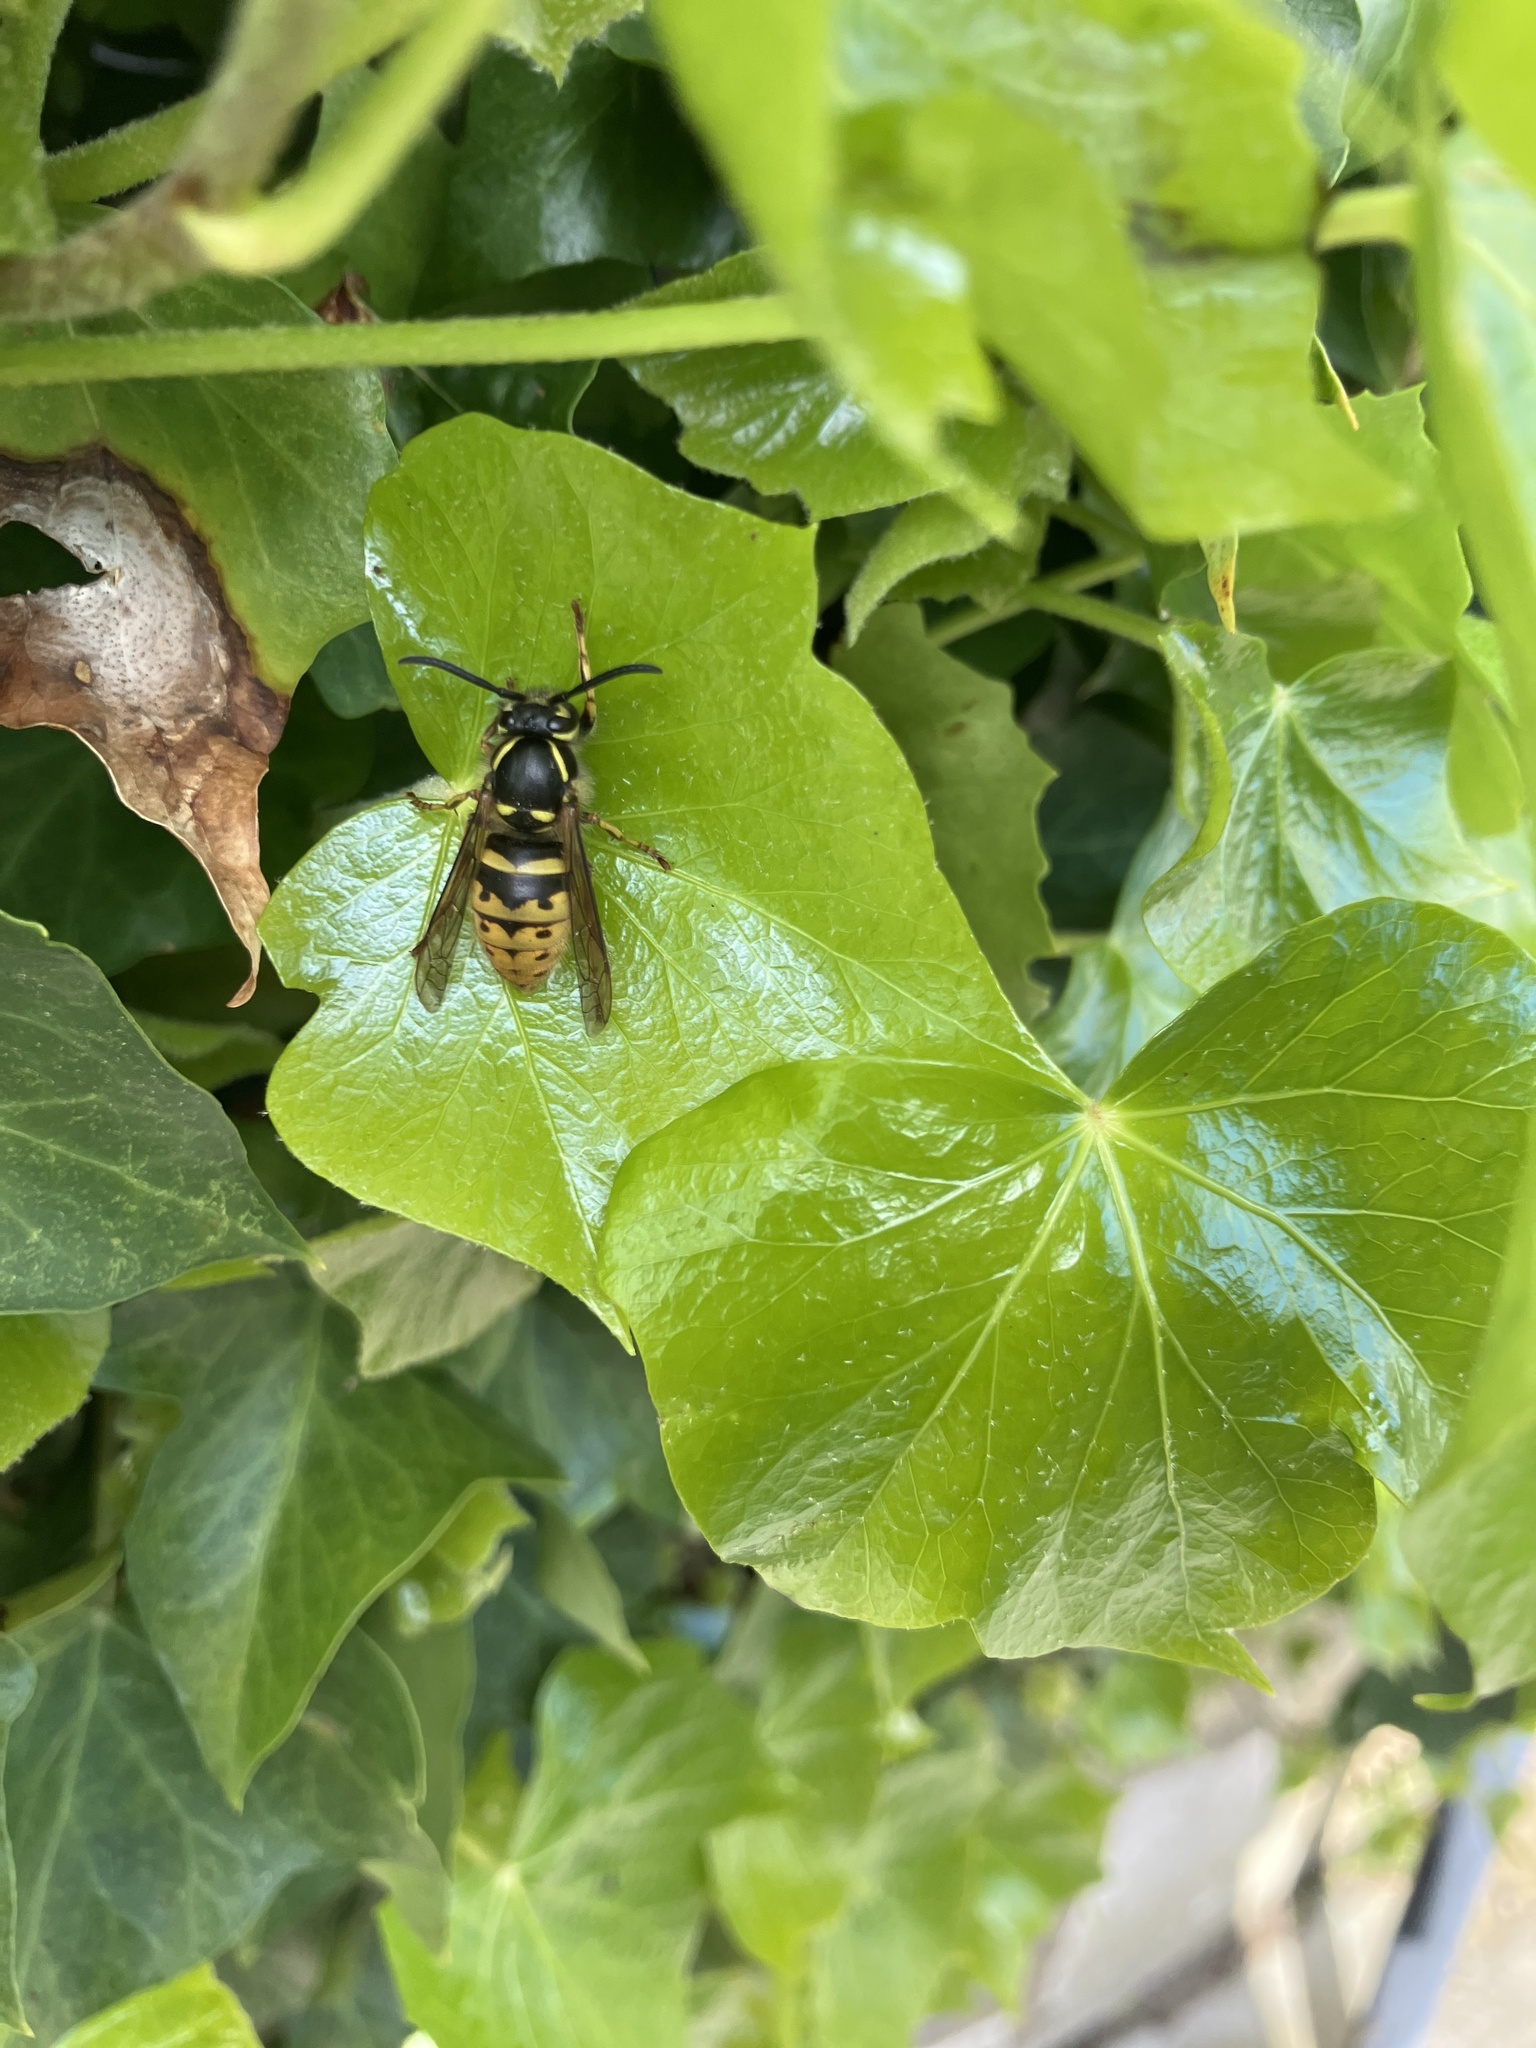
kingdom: Animalia
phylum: Arthropoda
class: Insecta
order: Hymenoptera
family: Vespidae
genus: Vespula
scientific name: Vespula vulgaris
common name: Common wasp
